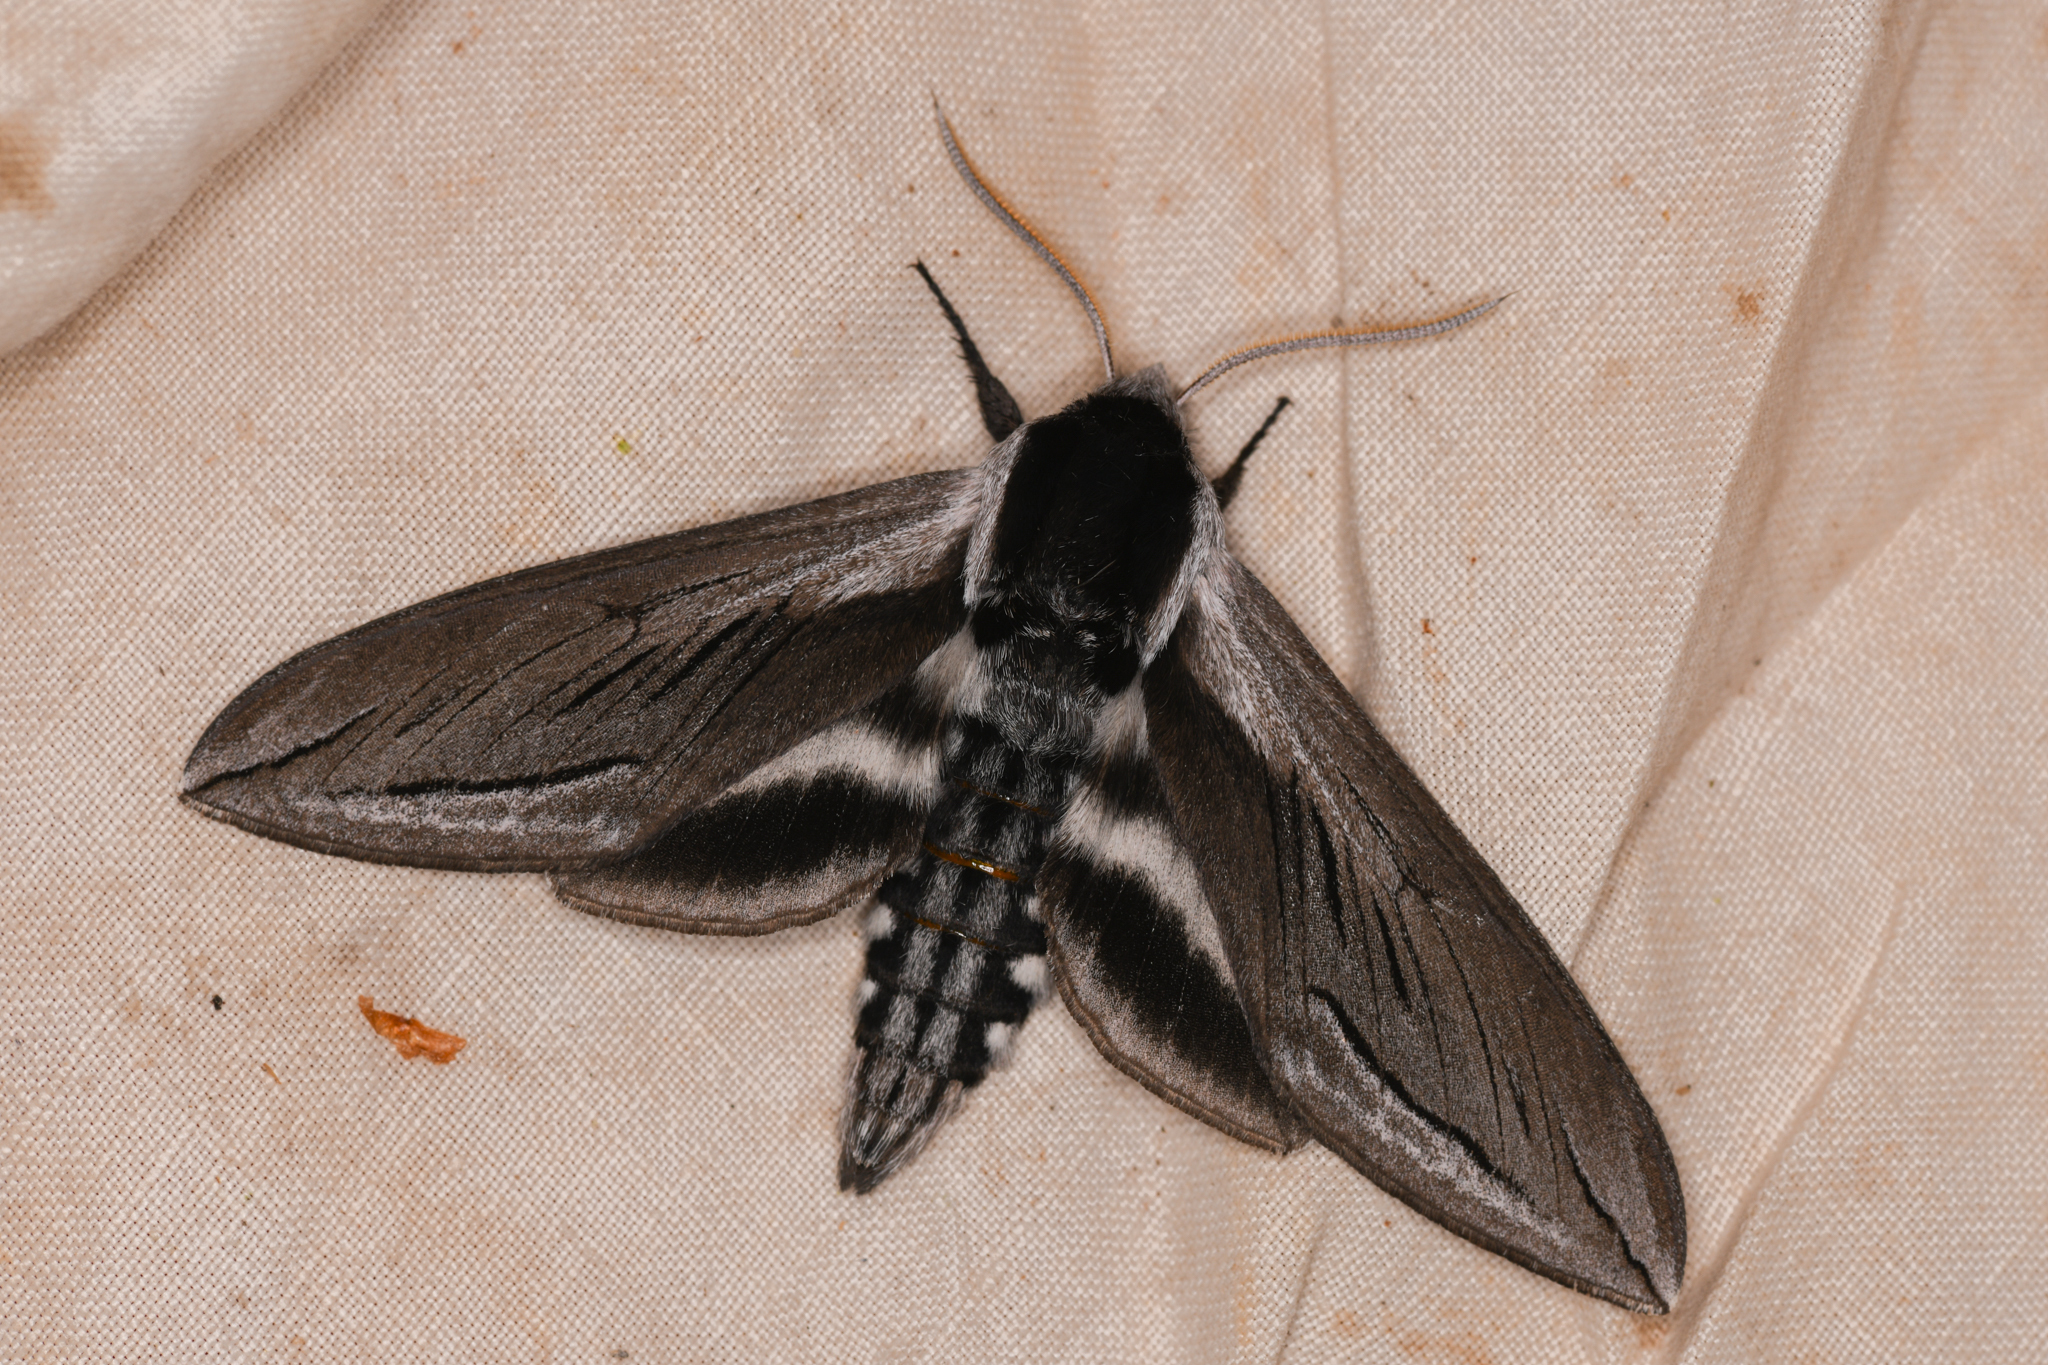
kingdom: Animalia
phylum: Arthropoda
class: Insecta
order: Lepidoptera
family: Sphingidae
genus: Sphinx
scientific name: Sphinx vashti
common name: Snowberry sphinx
